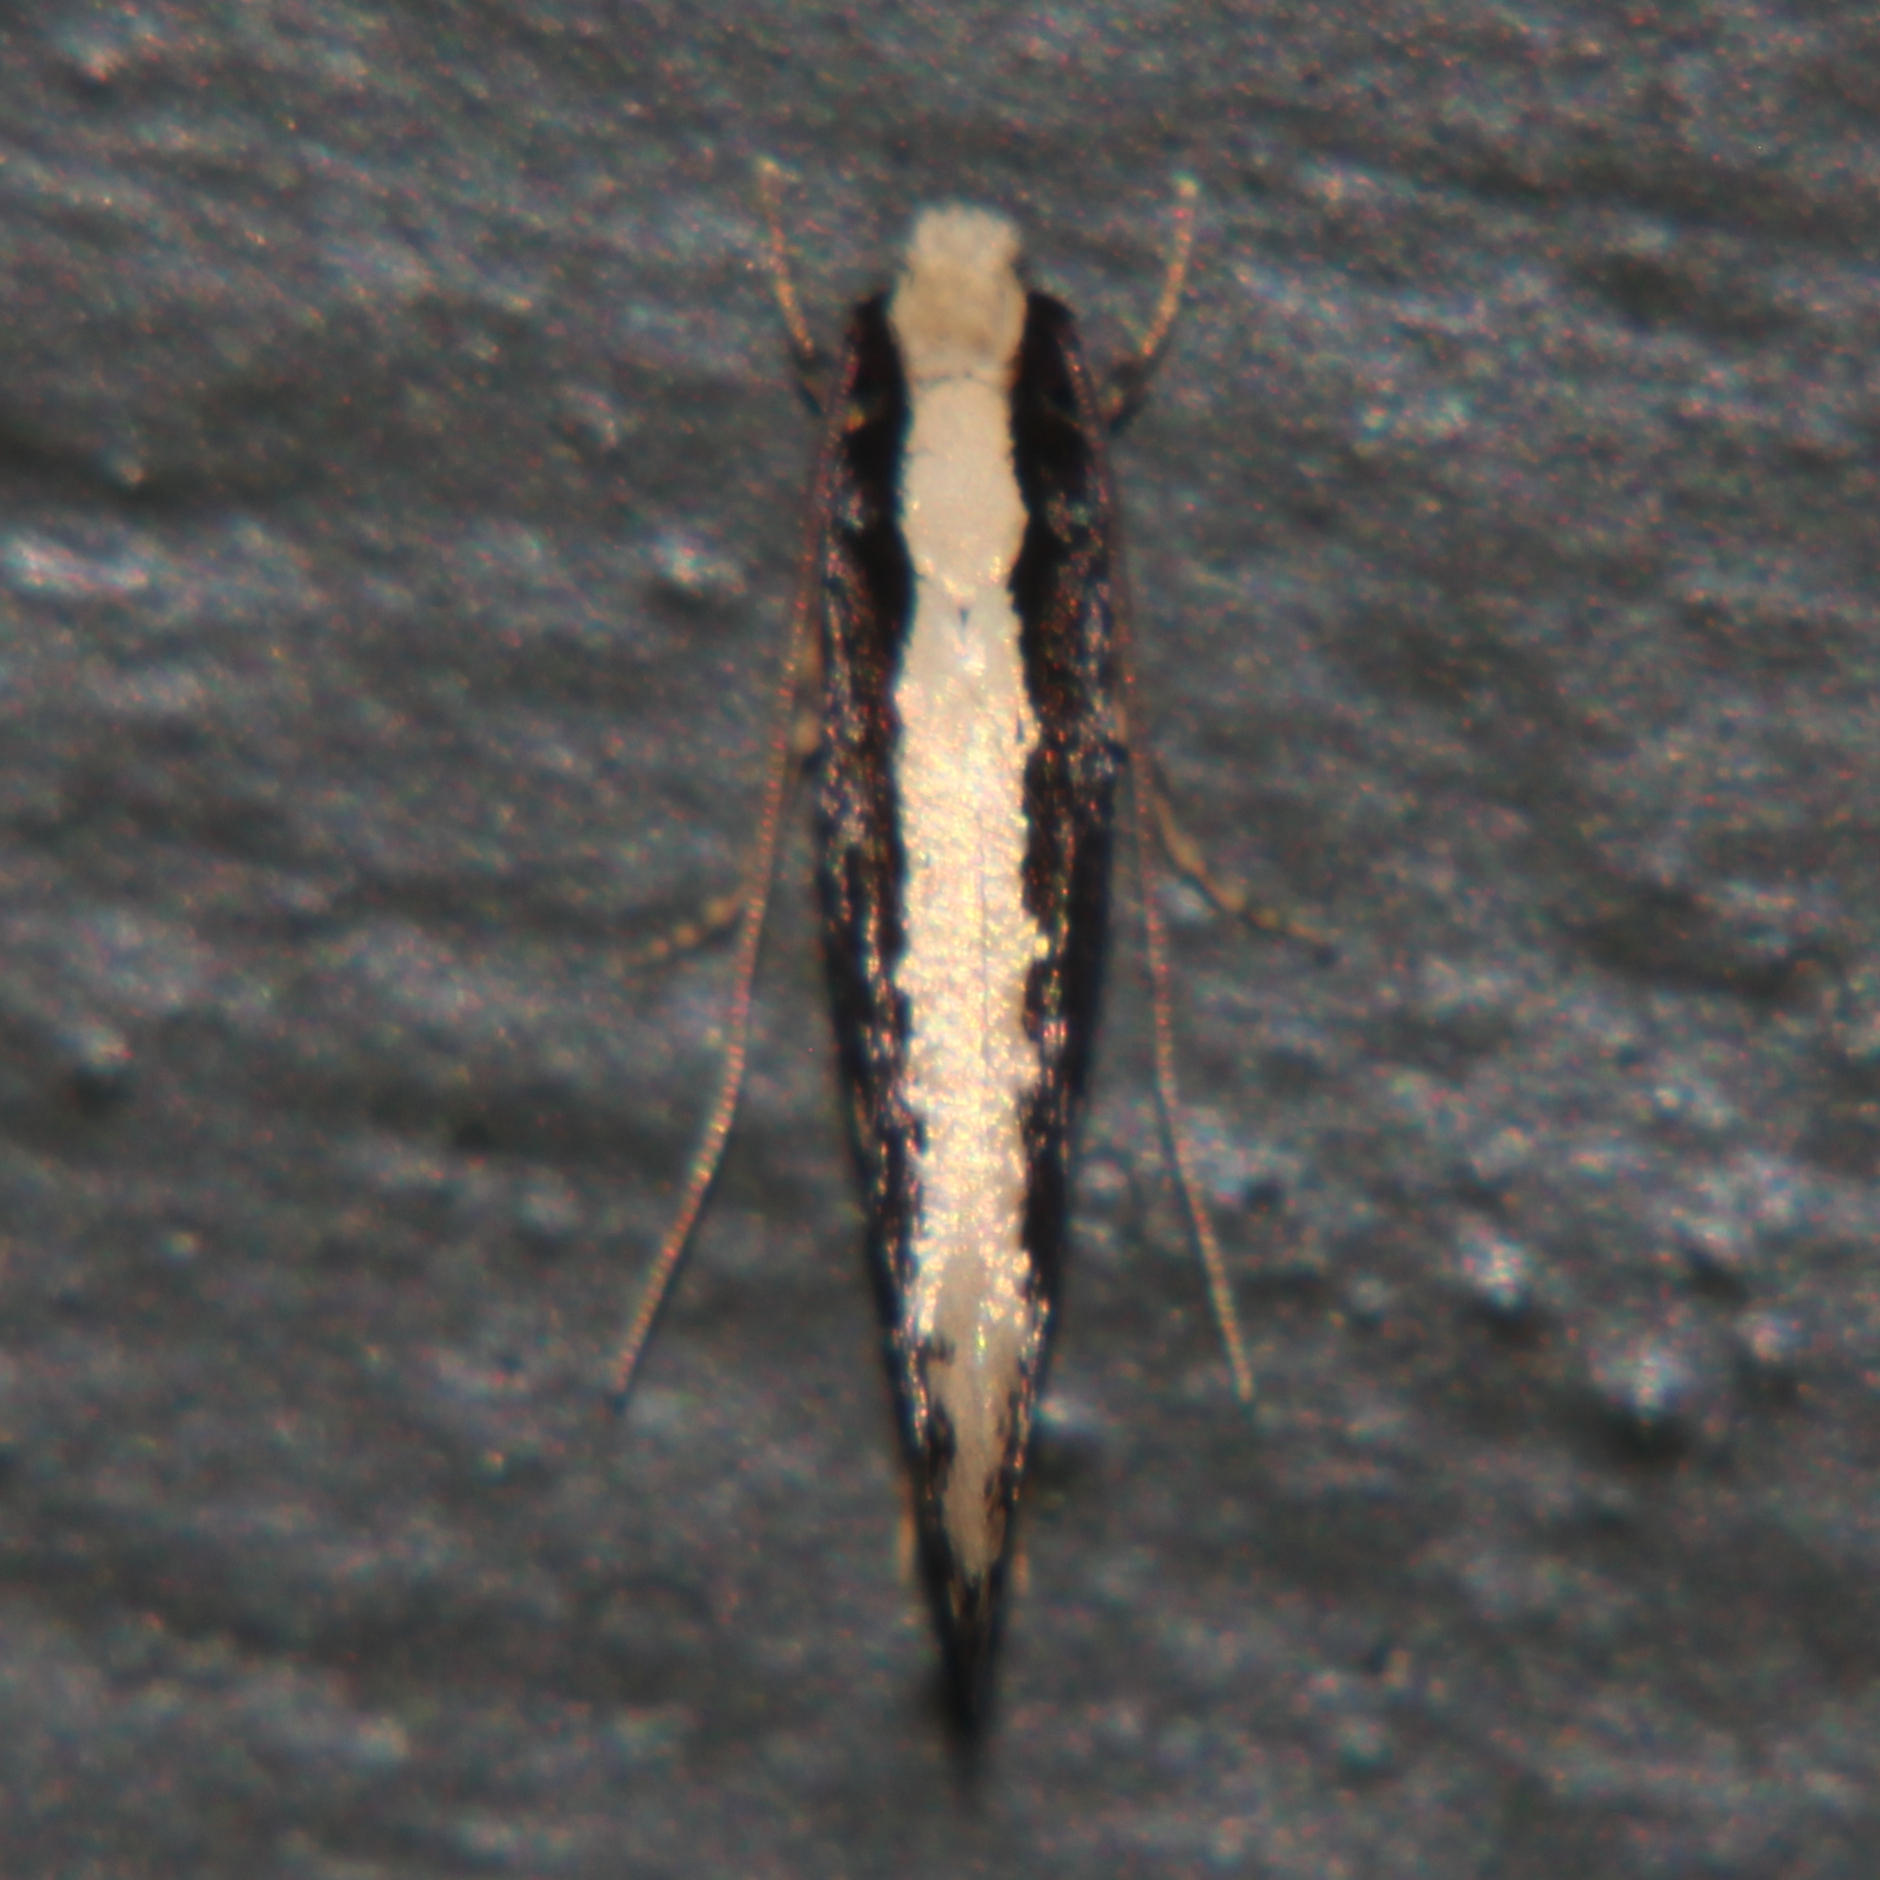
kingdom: Animalia
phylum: Arthropoda
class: Insecta
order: Lepidoptera
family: Tineidae
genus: Monopis
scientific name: Monopis ethelella
